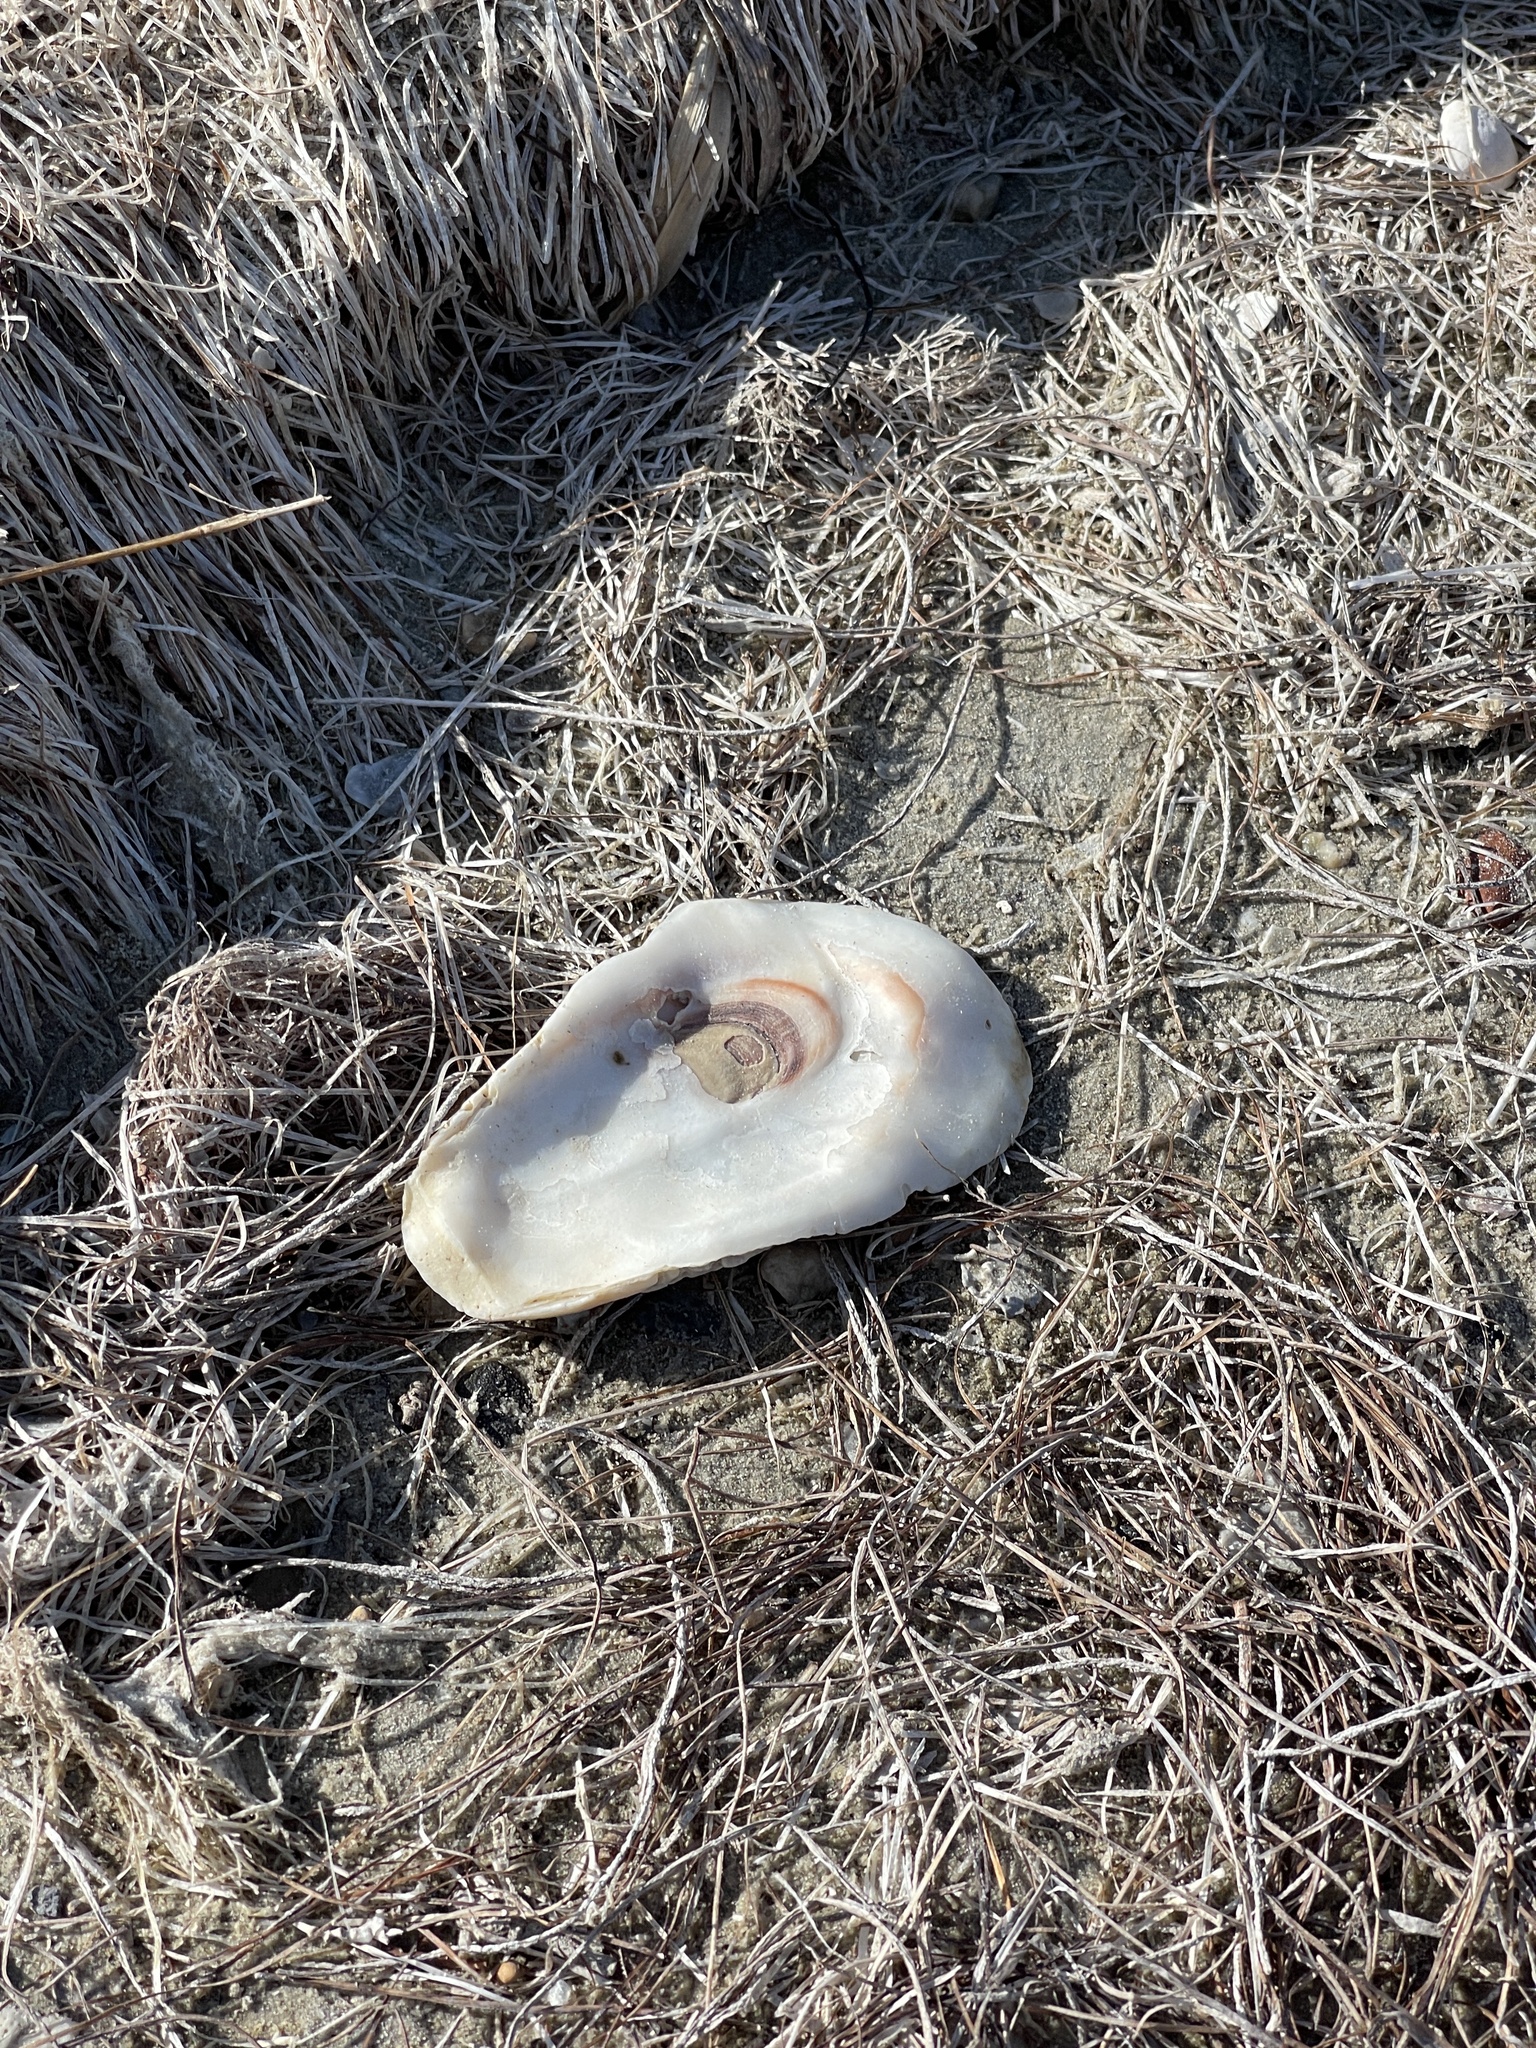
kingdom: Animalia
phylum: Mollusca
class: Bivalvia
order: Ostreida
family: Ostreidae
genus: Crassostrea
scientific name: Crassostrea virginica
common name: American oyster
